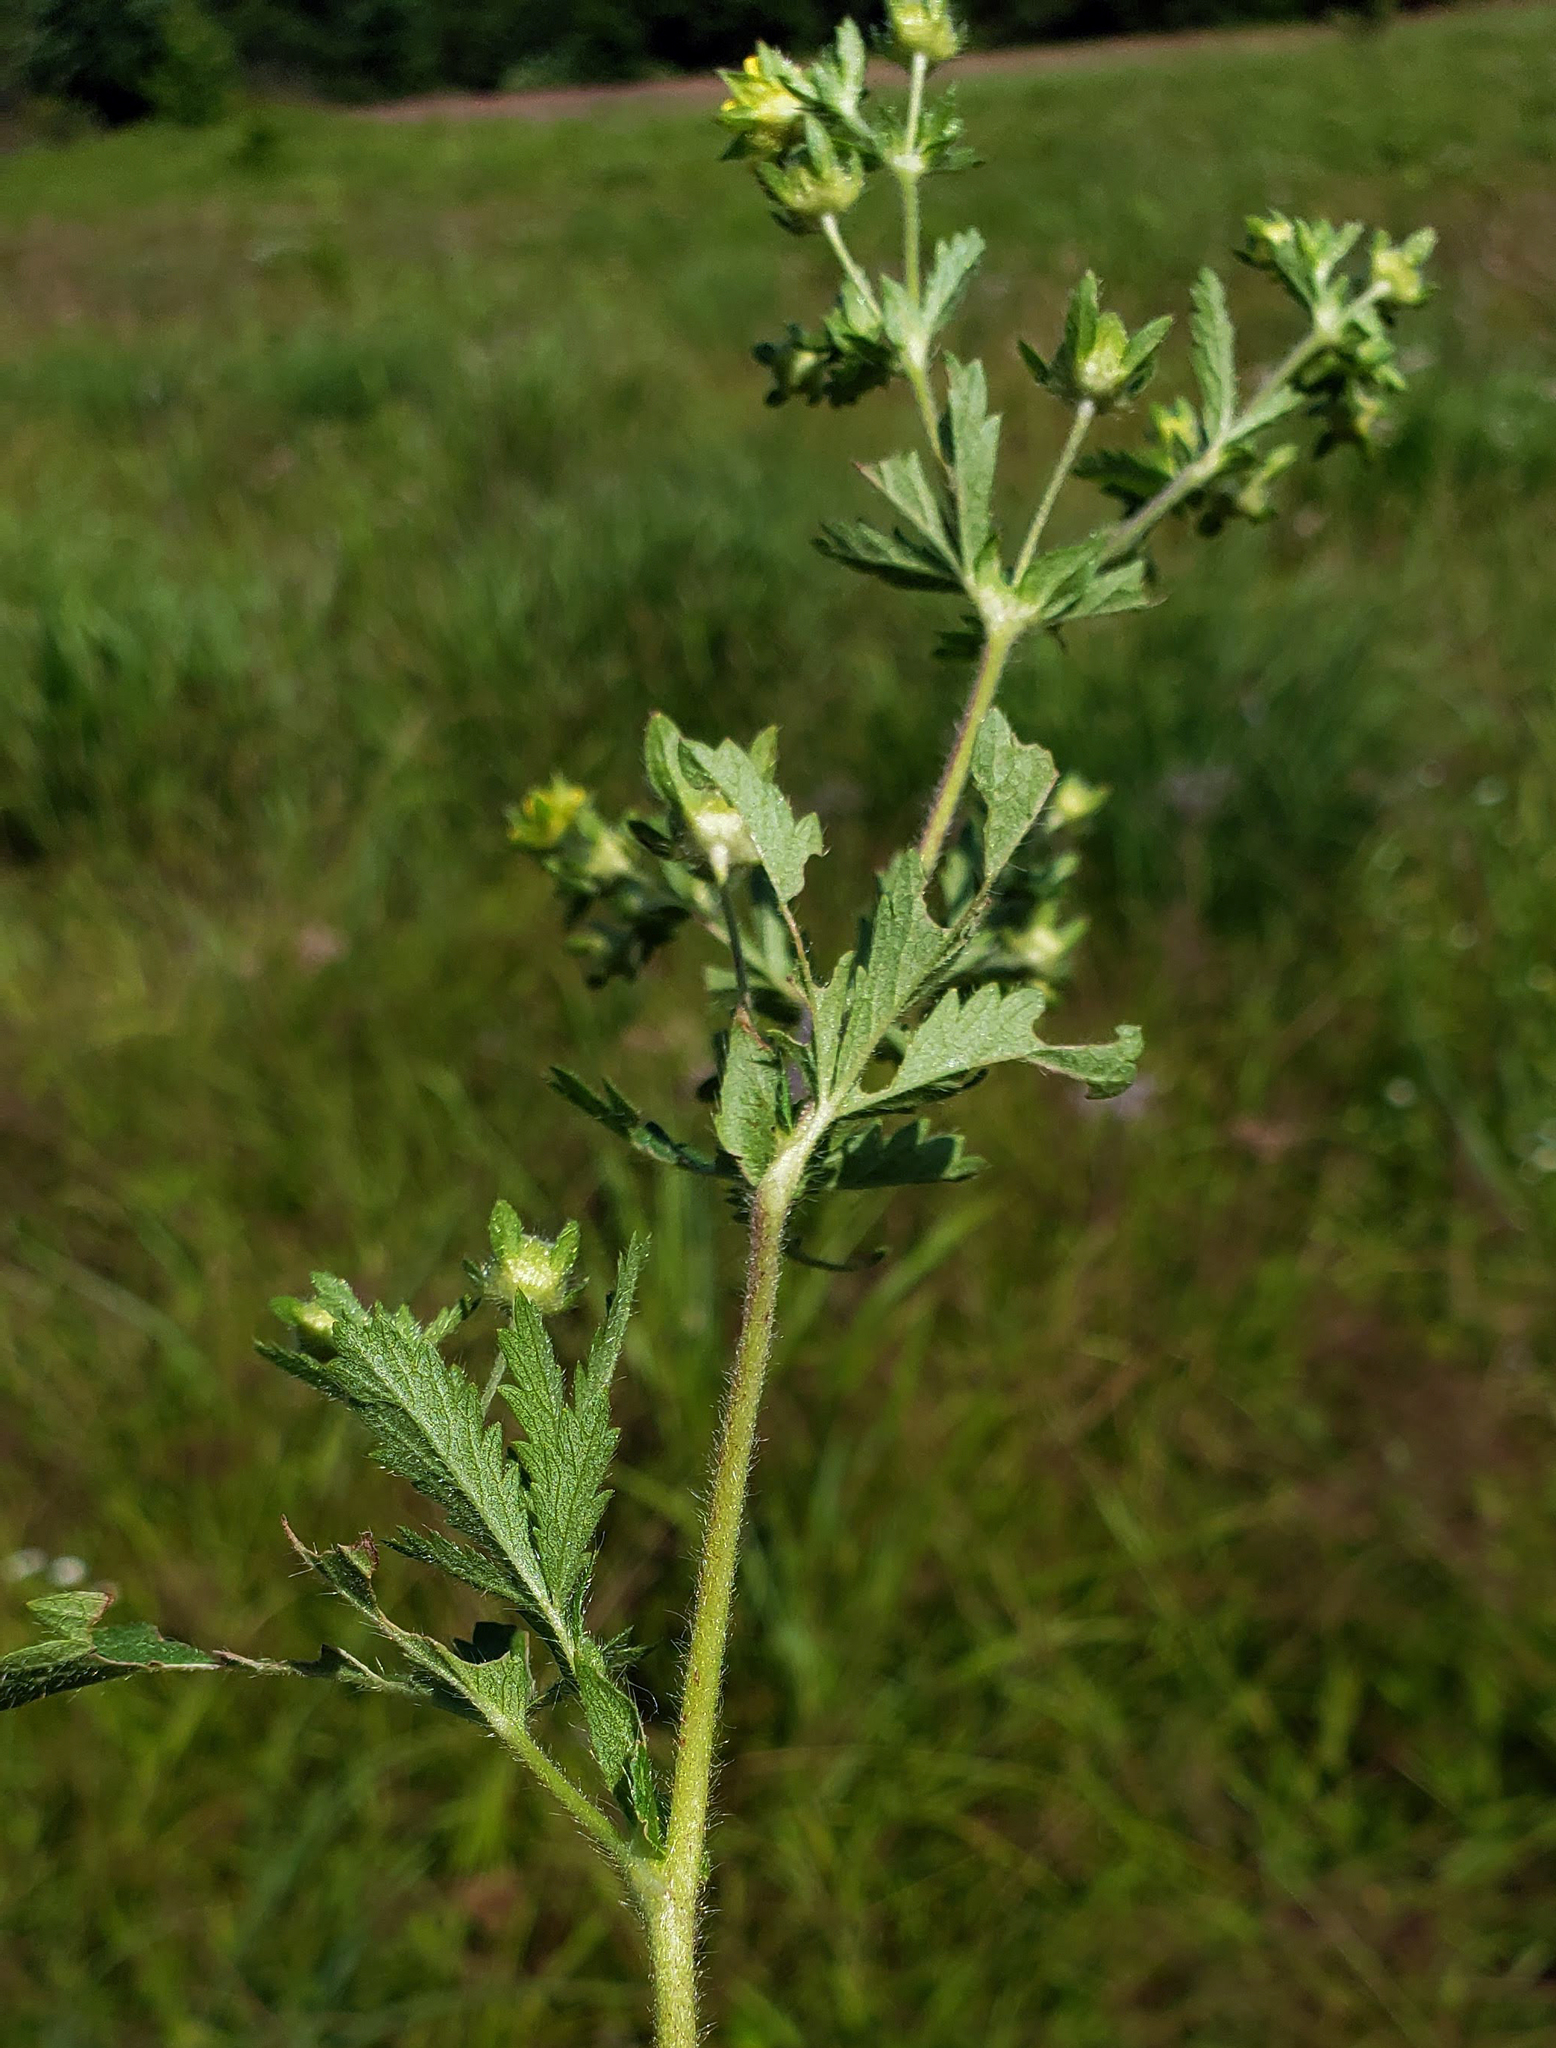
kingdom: Plantae
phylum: Tracheophyta
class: Magnoliopsida
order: Rosales
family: Rosaceae
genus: Potentilla
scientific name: Potentilla norvegica
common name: Ternate-leaved cinquefoil
